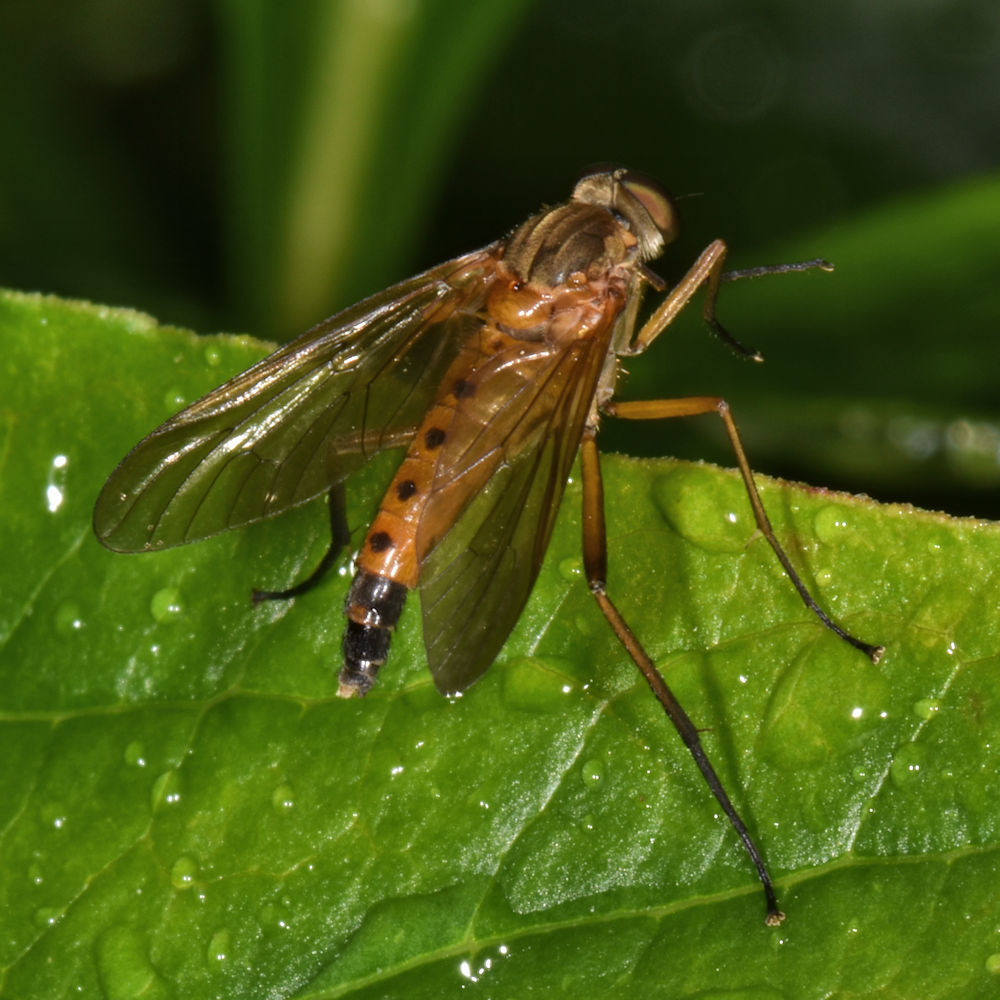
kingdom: Animalia
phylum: Arthropoda
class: Insecta
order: Diptera
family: Rhagionidae
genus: Rhagio
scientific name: Rhagio tringaria
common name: Marsh snipefly
